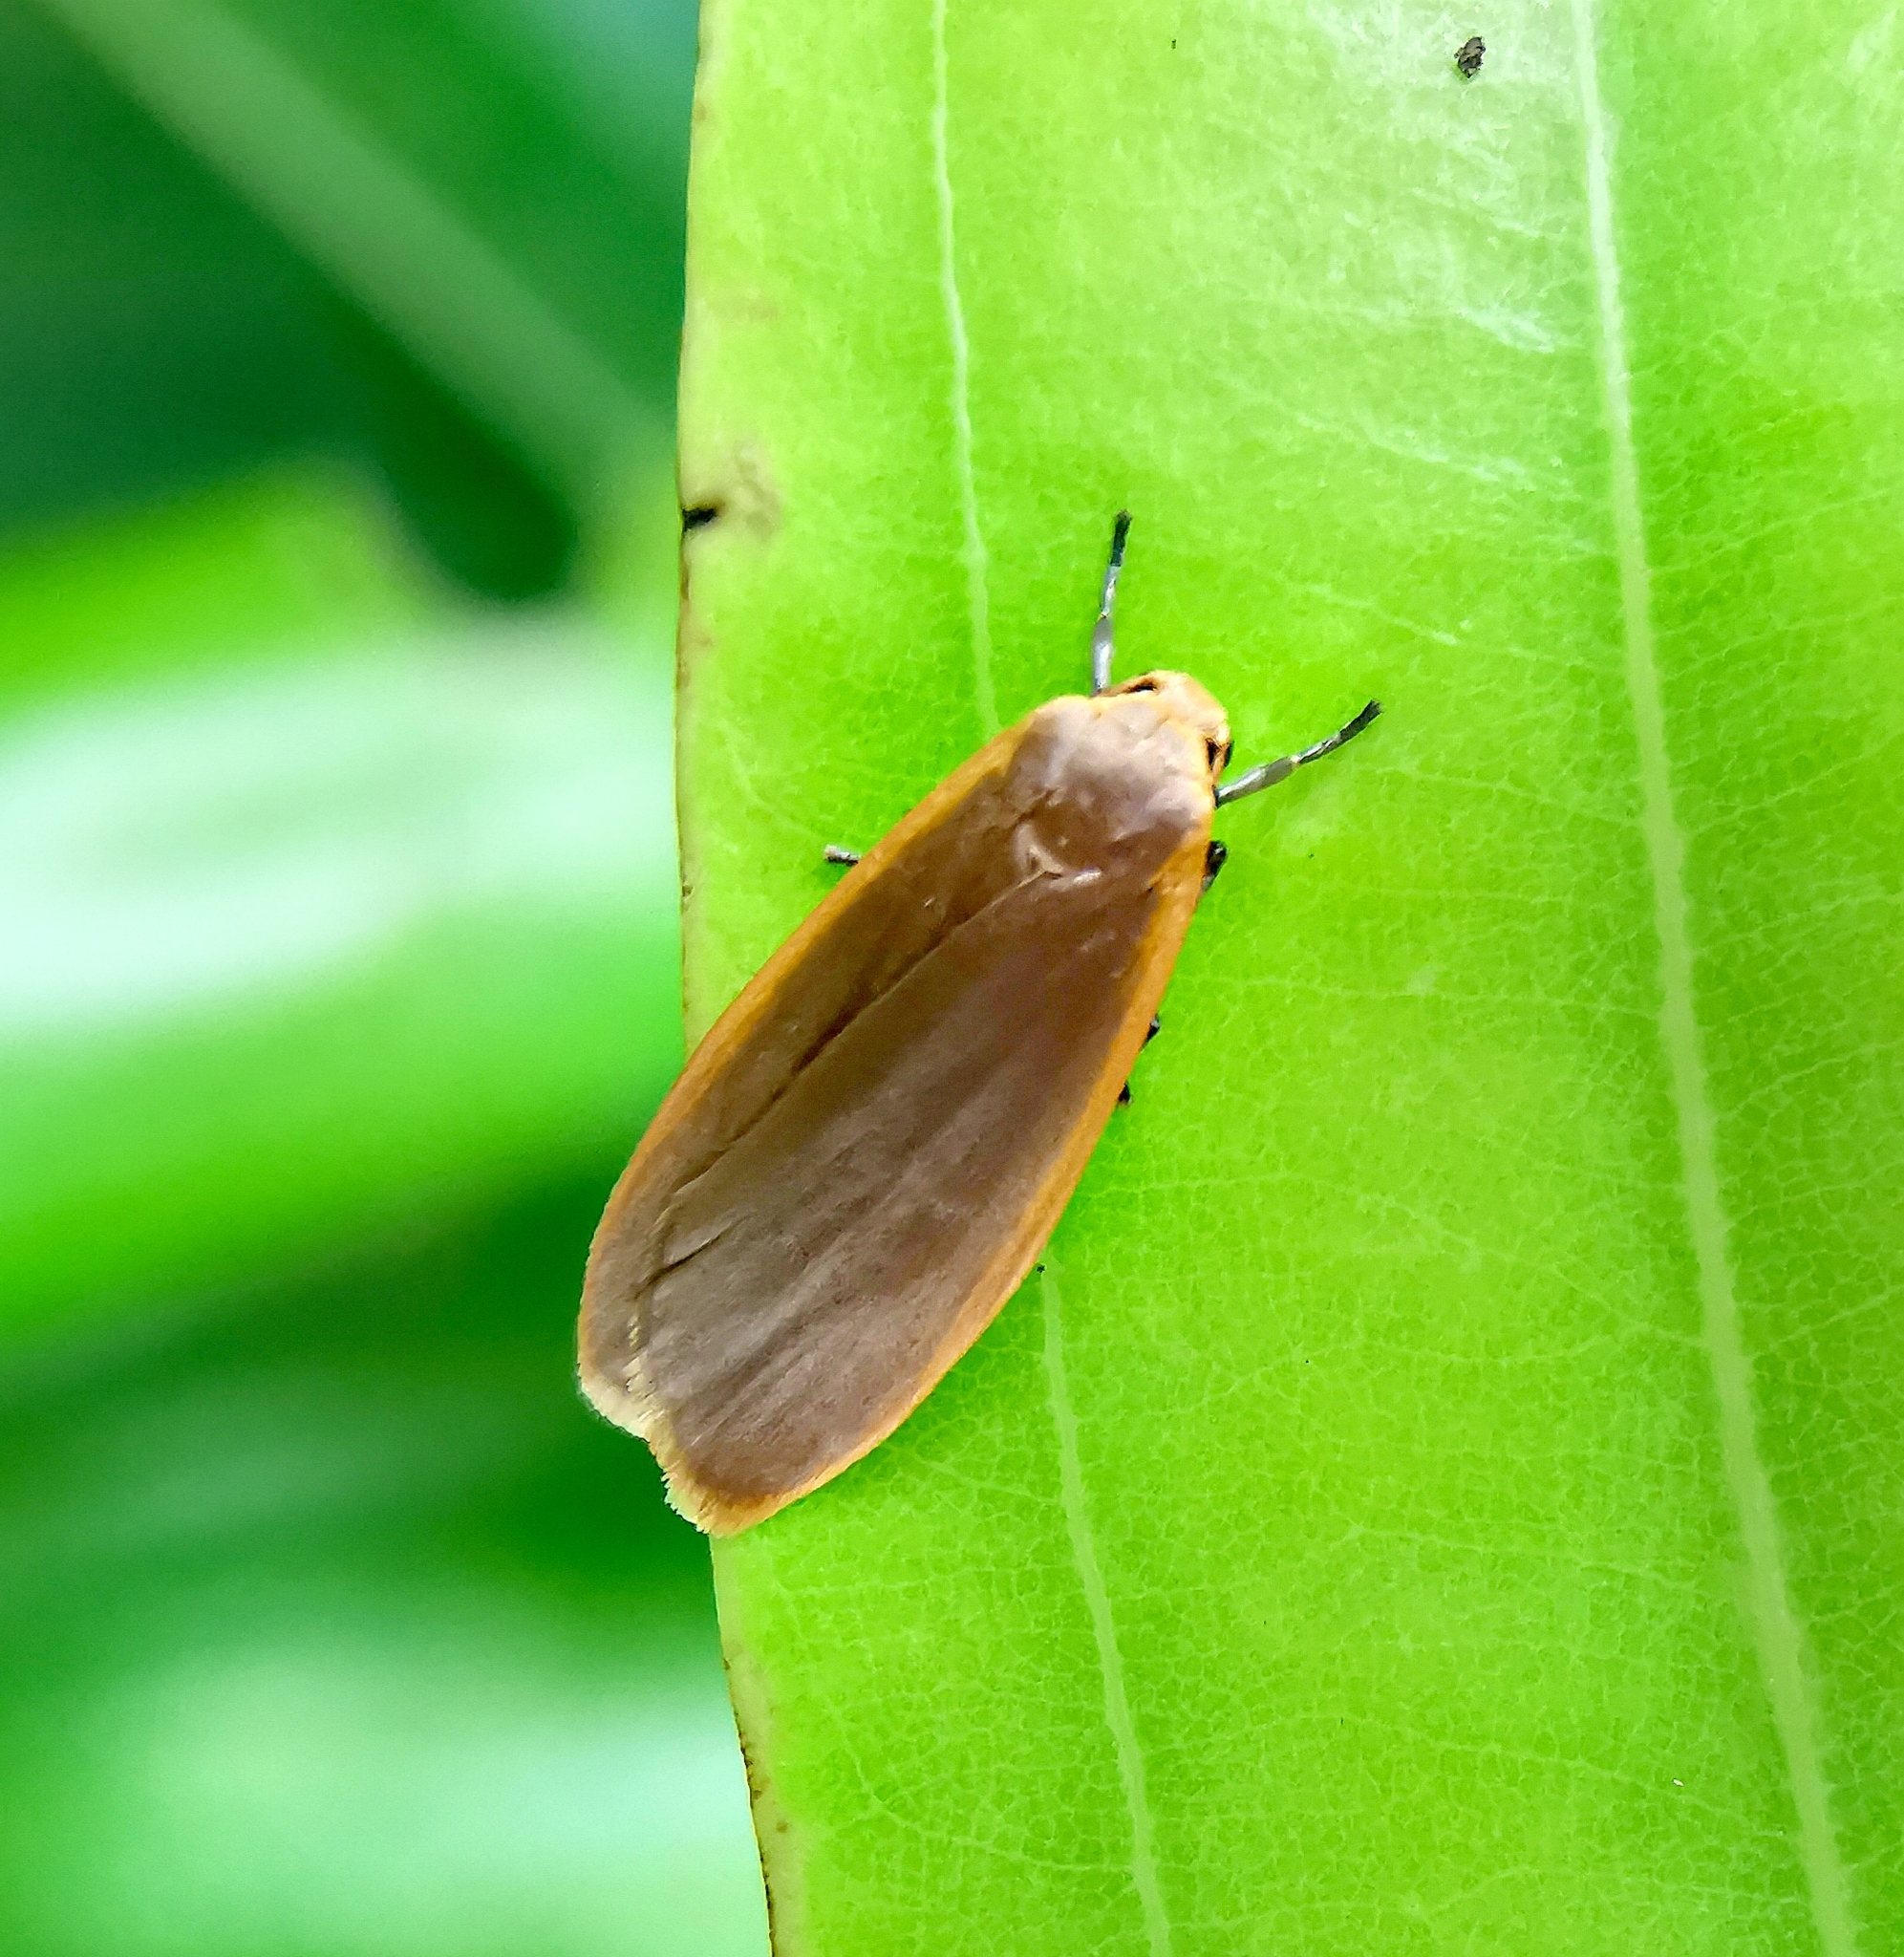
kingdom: Animalia
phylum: Arthropoda
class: Insecta
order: Lepidoptera
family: Erebidae
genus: Brunia
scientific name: Brunia antica
